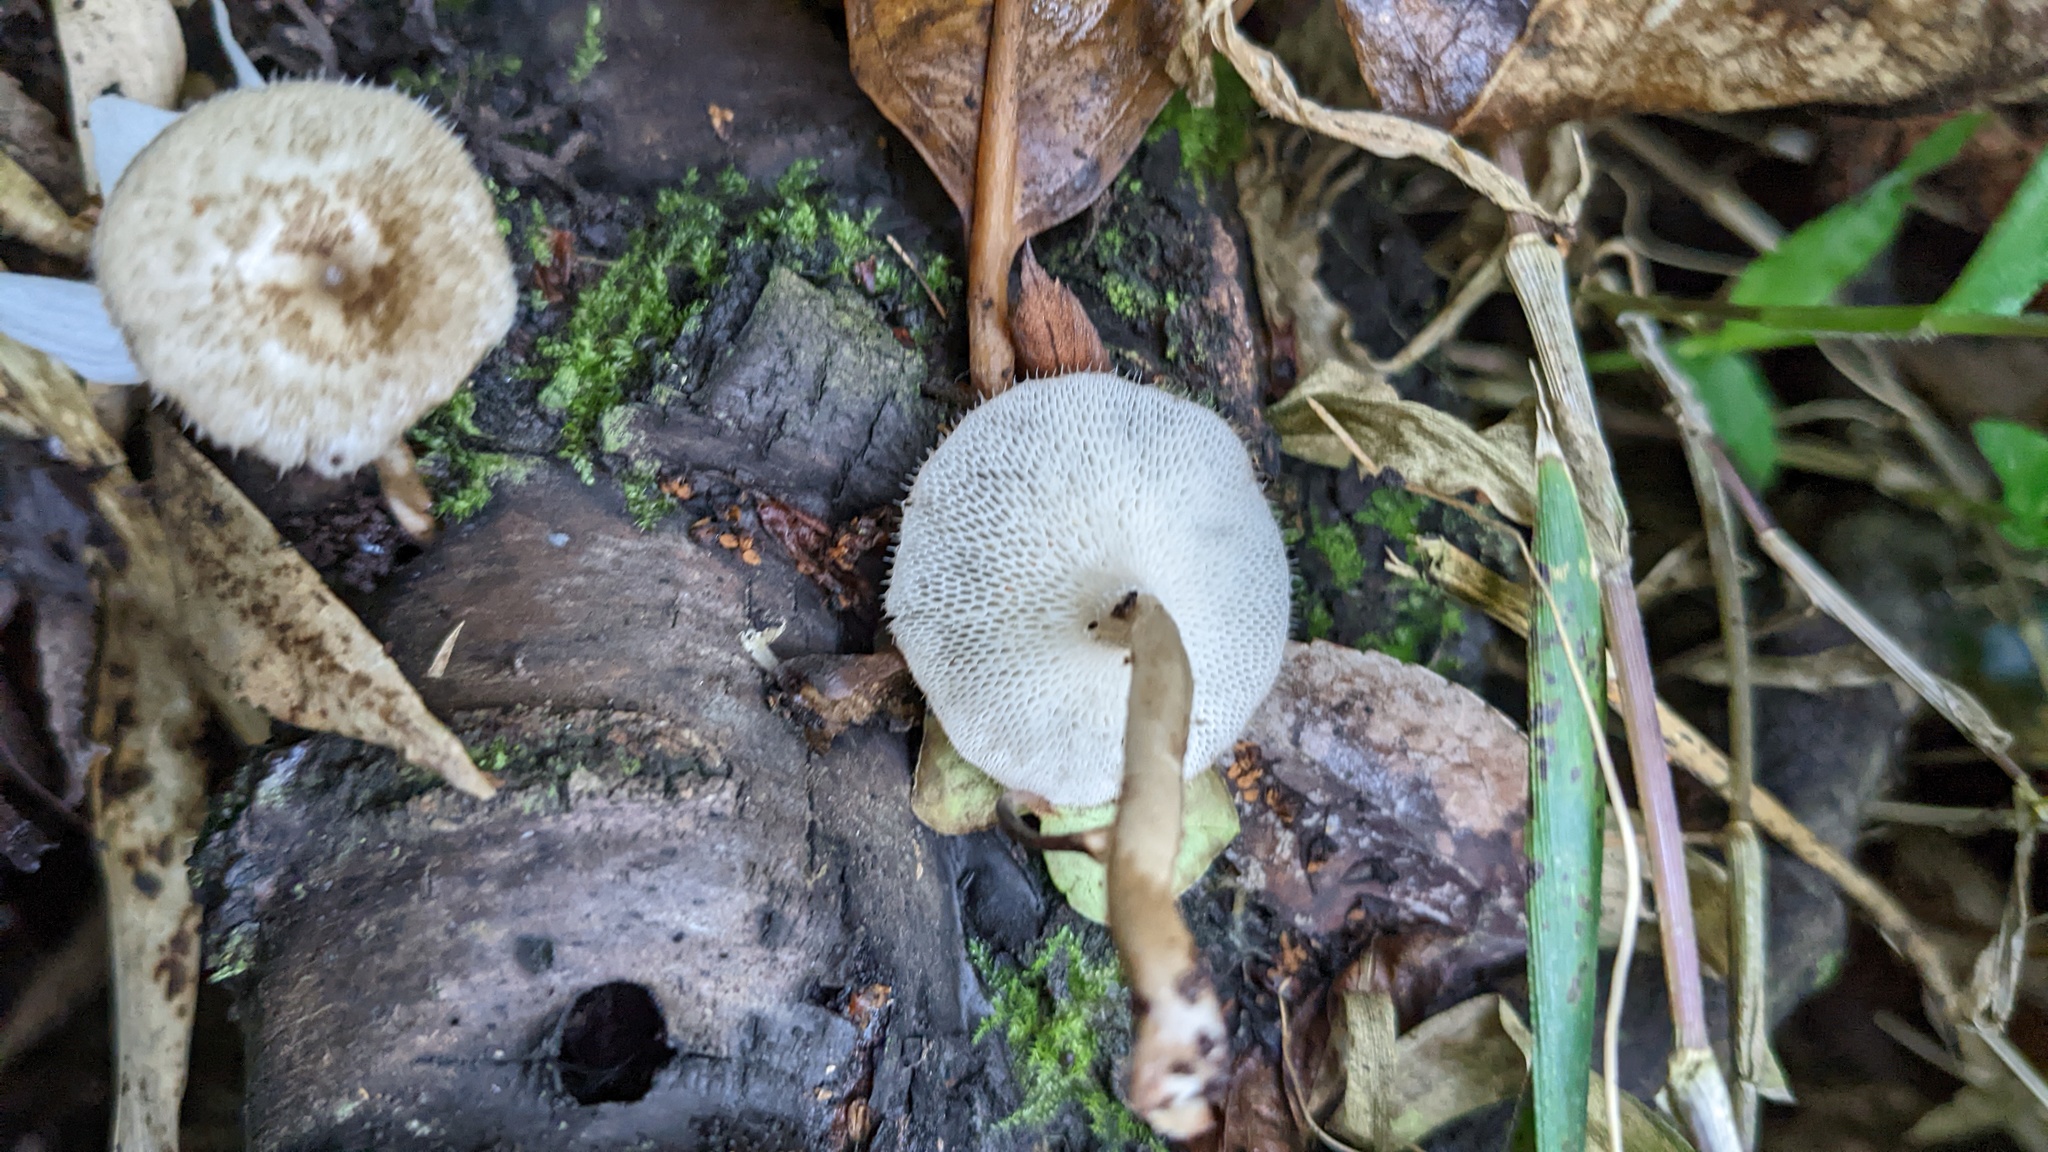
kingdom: Fungi
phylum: Basidiomycota
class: Agaricomycetes
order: Polyporales
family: Polyporaceae
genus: Lentinus
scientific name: Lentinus arcularius
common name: Spring polypore
